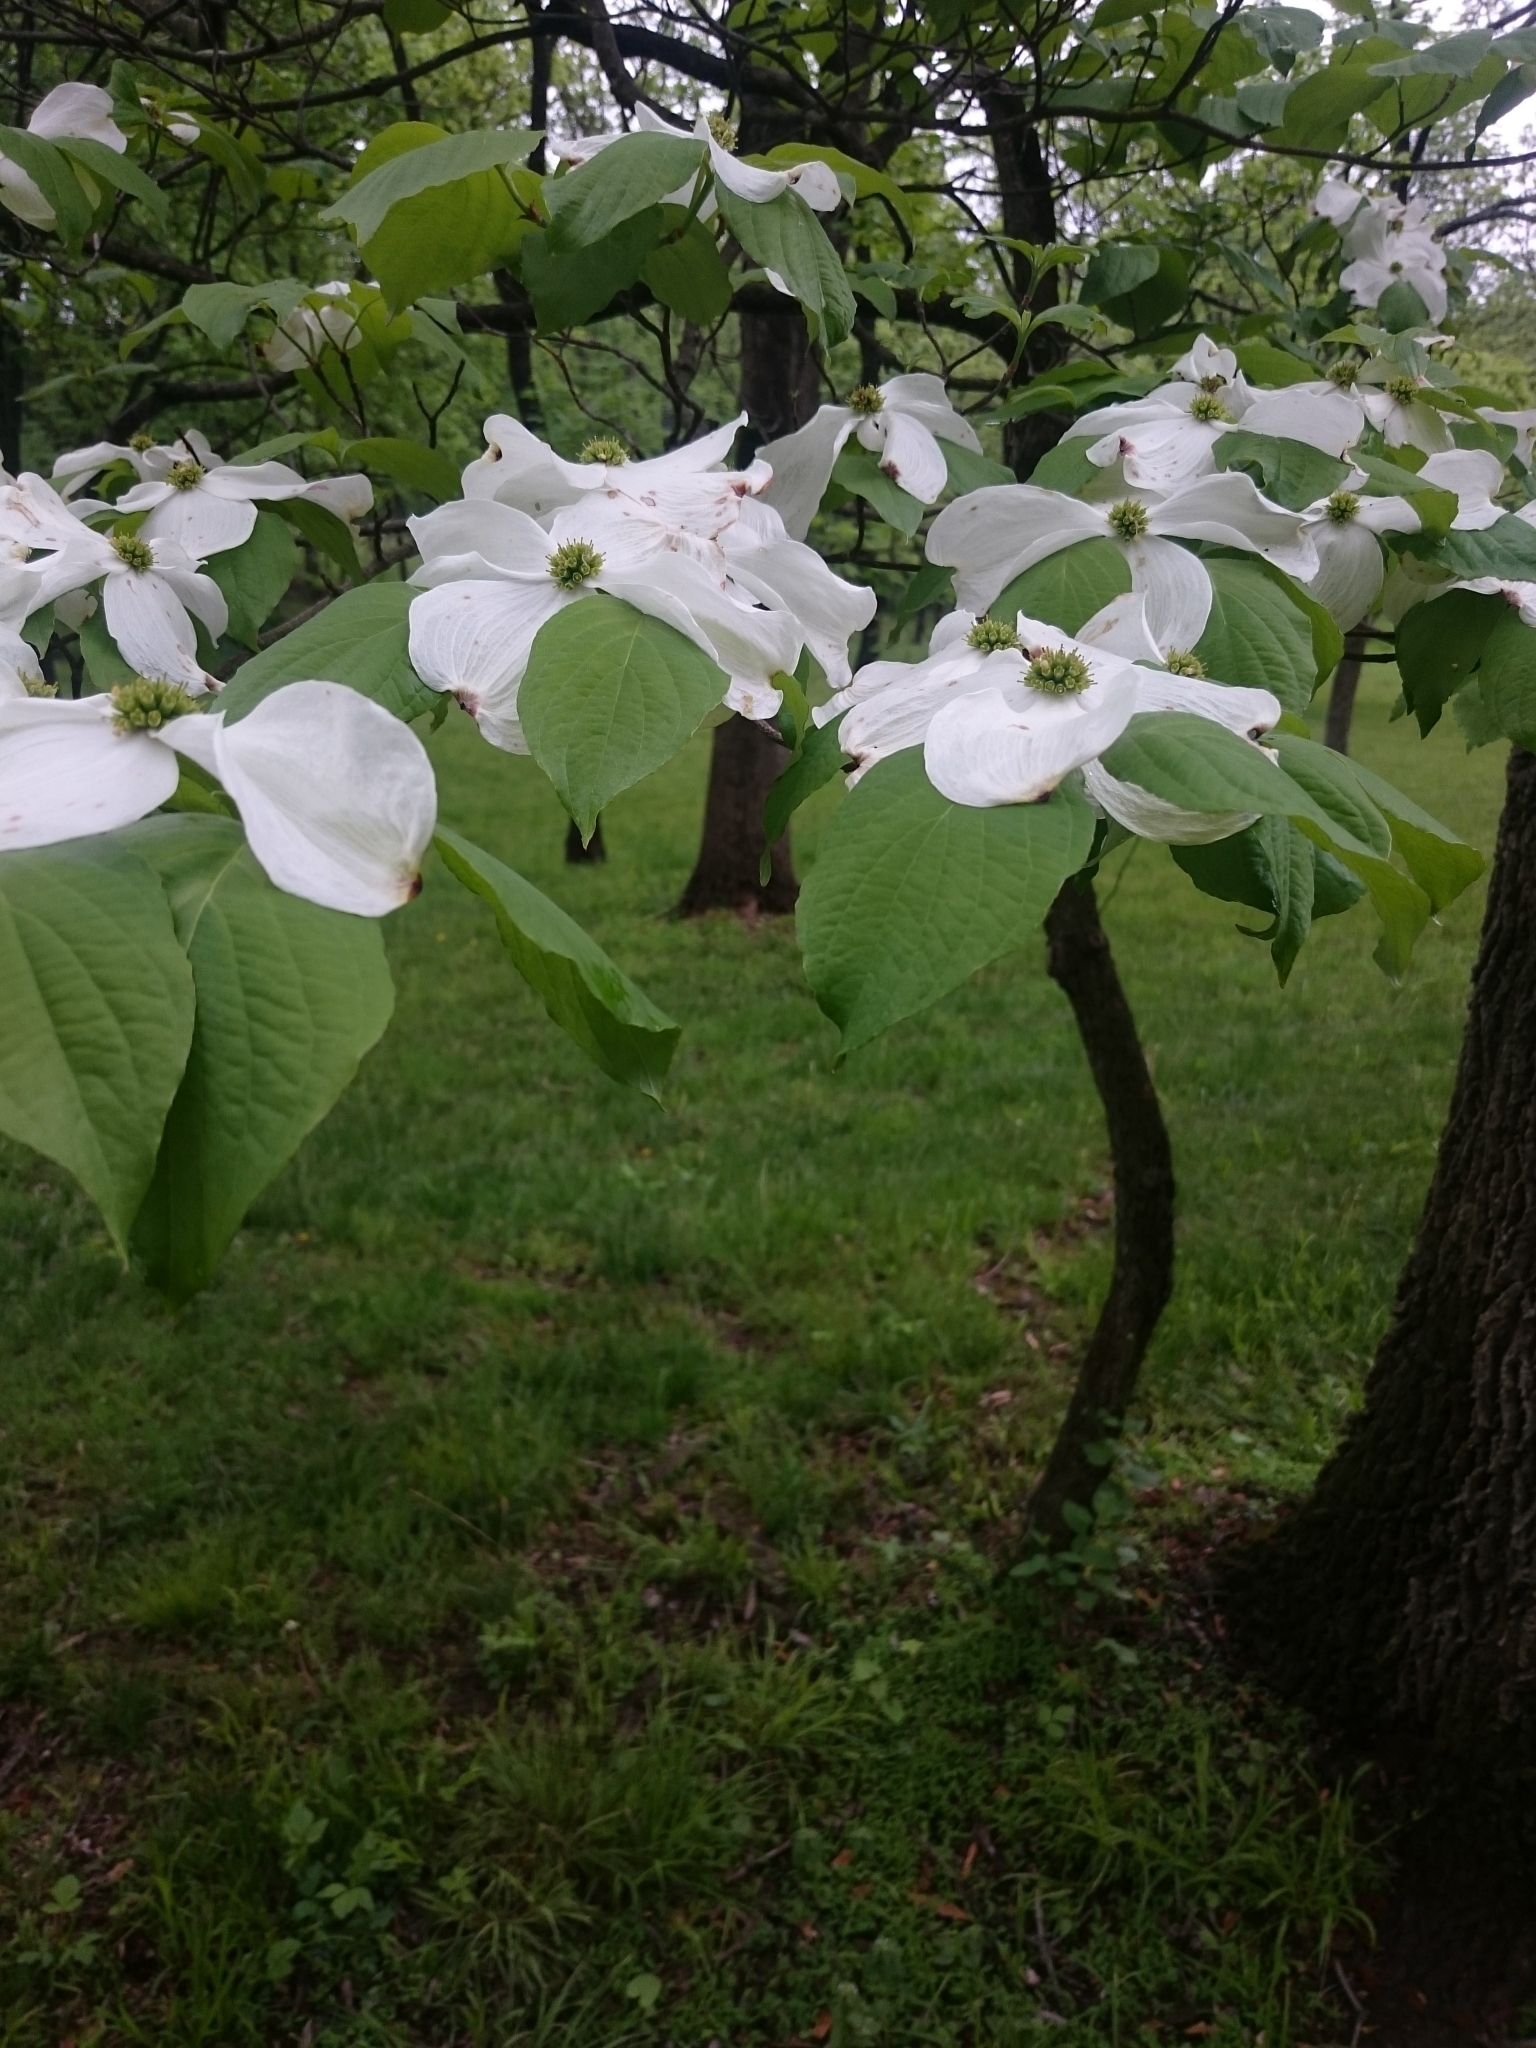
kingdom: Plantae
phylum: Tracheophyta
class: Magnoliopsida
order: Cornales
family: Cornaceae
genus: Cornus
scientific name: Cornus florida
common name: Flowering dogwood
